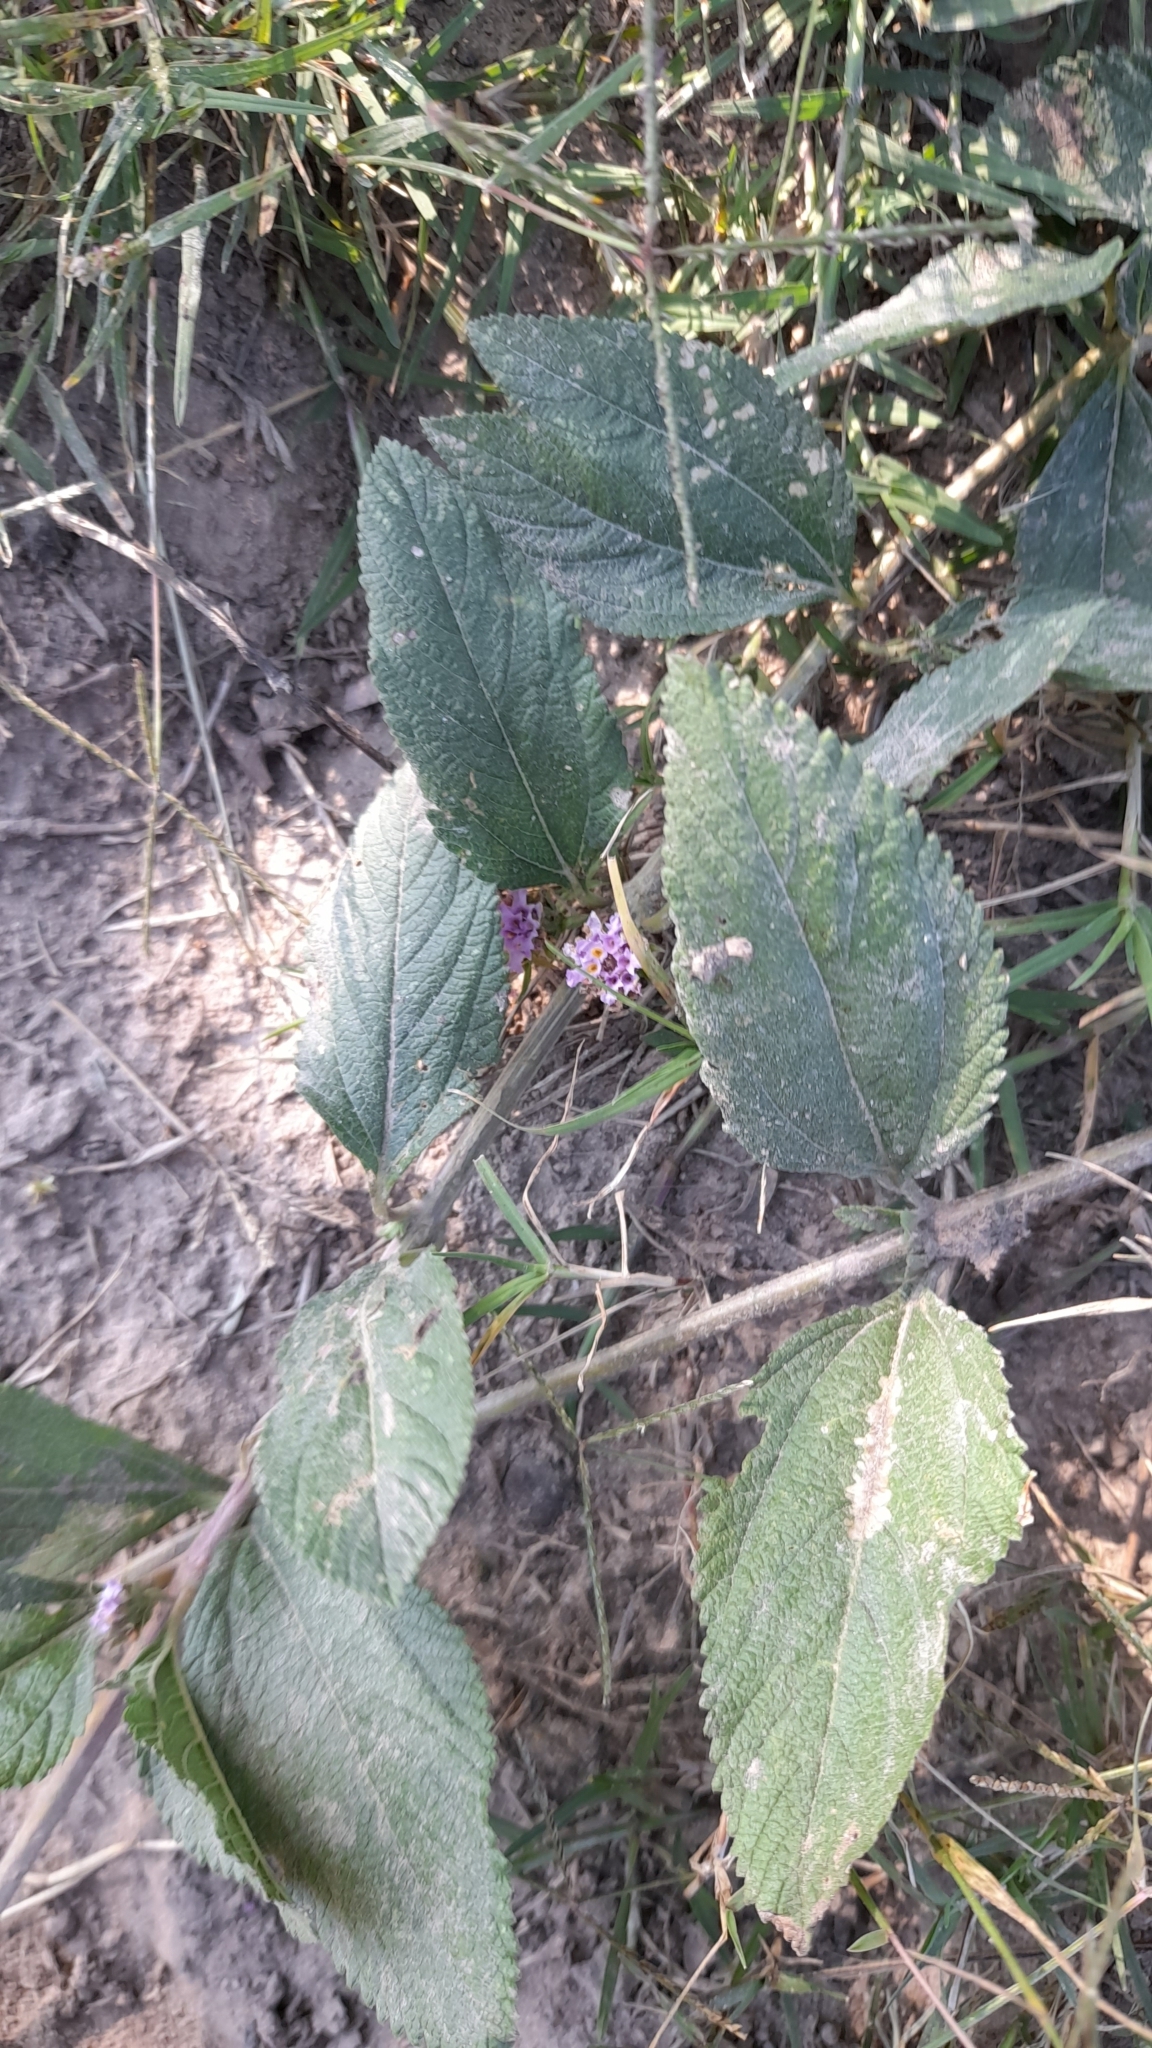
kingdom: Plantae
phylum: Tracheophyta
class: Magnoliopsida
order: Lamiales
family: Verbenaceae
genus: Lippia
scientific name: Lippia alba
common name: Bushy matgrass
